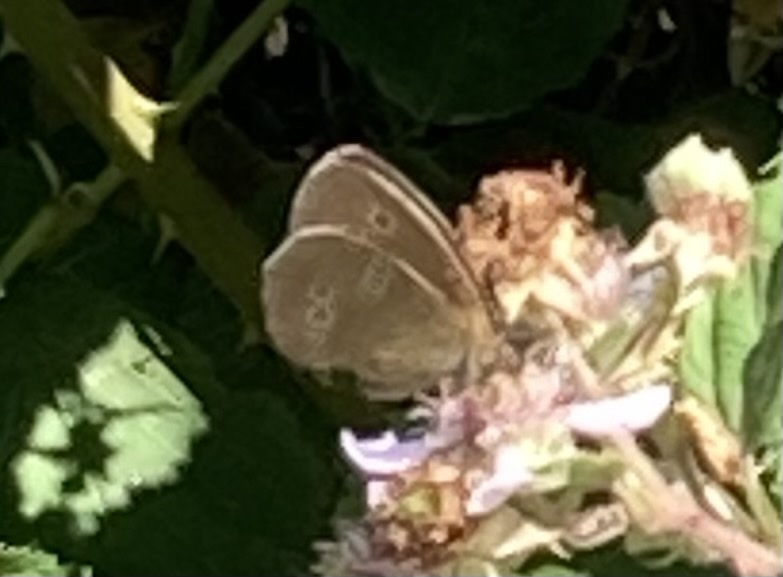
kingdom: Animalia
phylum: Arthropoda
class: Insecta
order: Lepidoptera
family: Nymphalidae
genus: Aphantopus
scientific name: Aphantopus hyperantus
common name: Ringlet
